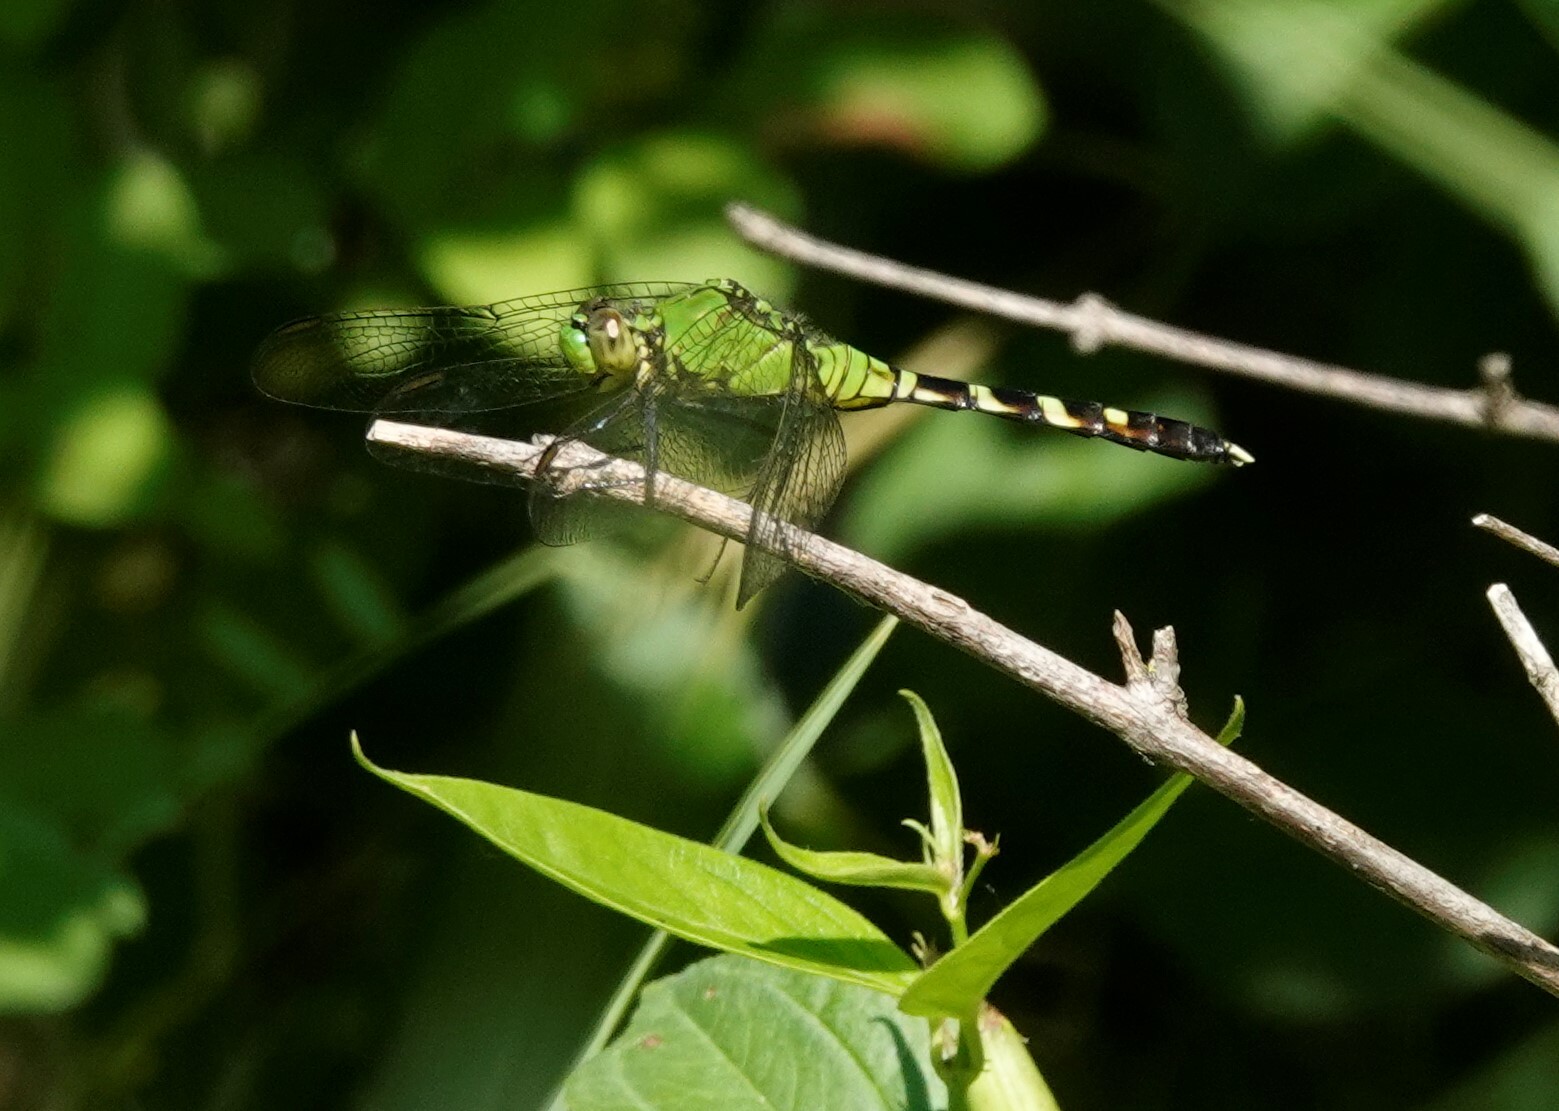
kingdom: Animalia
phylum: Arthropoda
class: Insecta
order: Odonata
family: Libellulidae
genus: Erythemis
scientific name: Erythemis simplicicollis
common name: Eastern pondhawk
